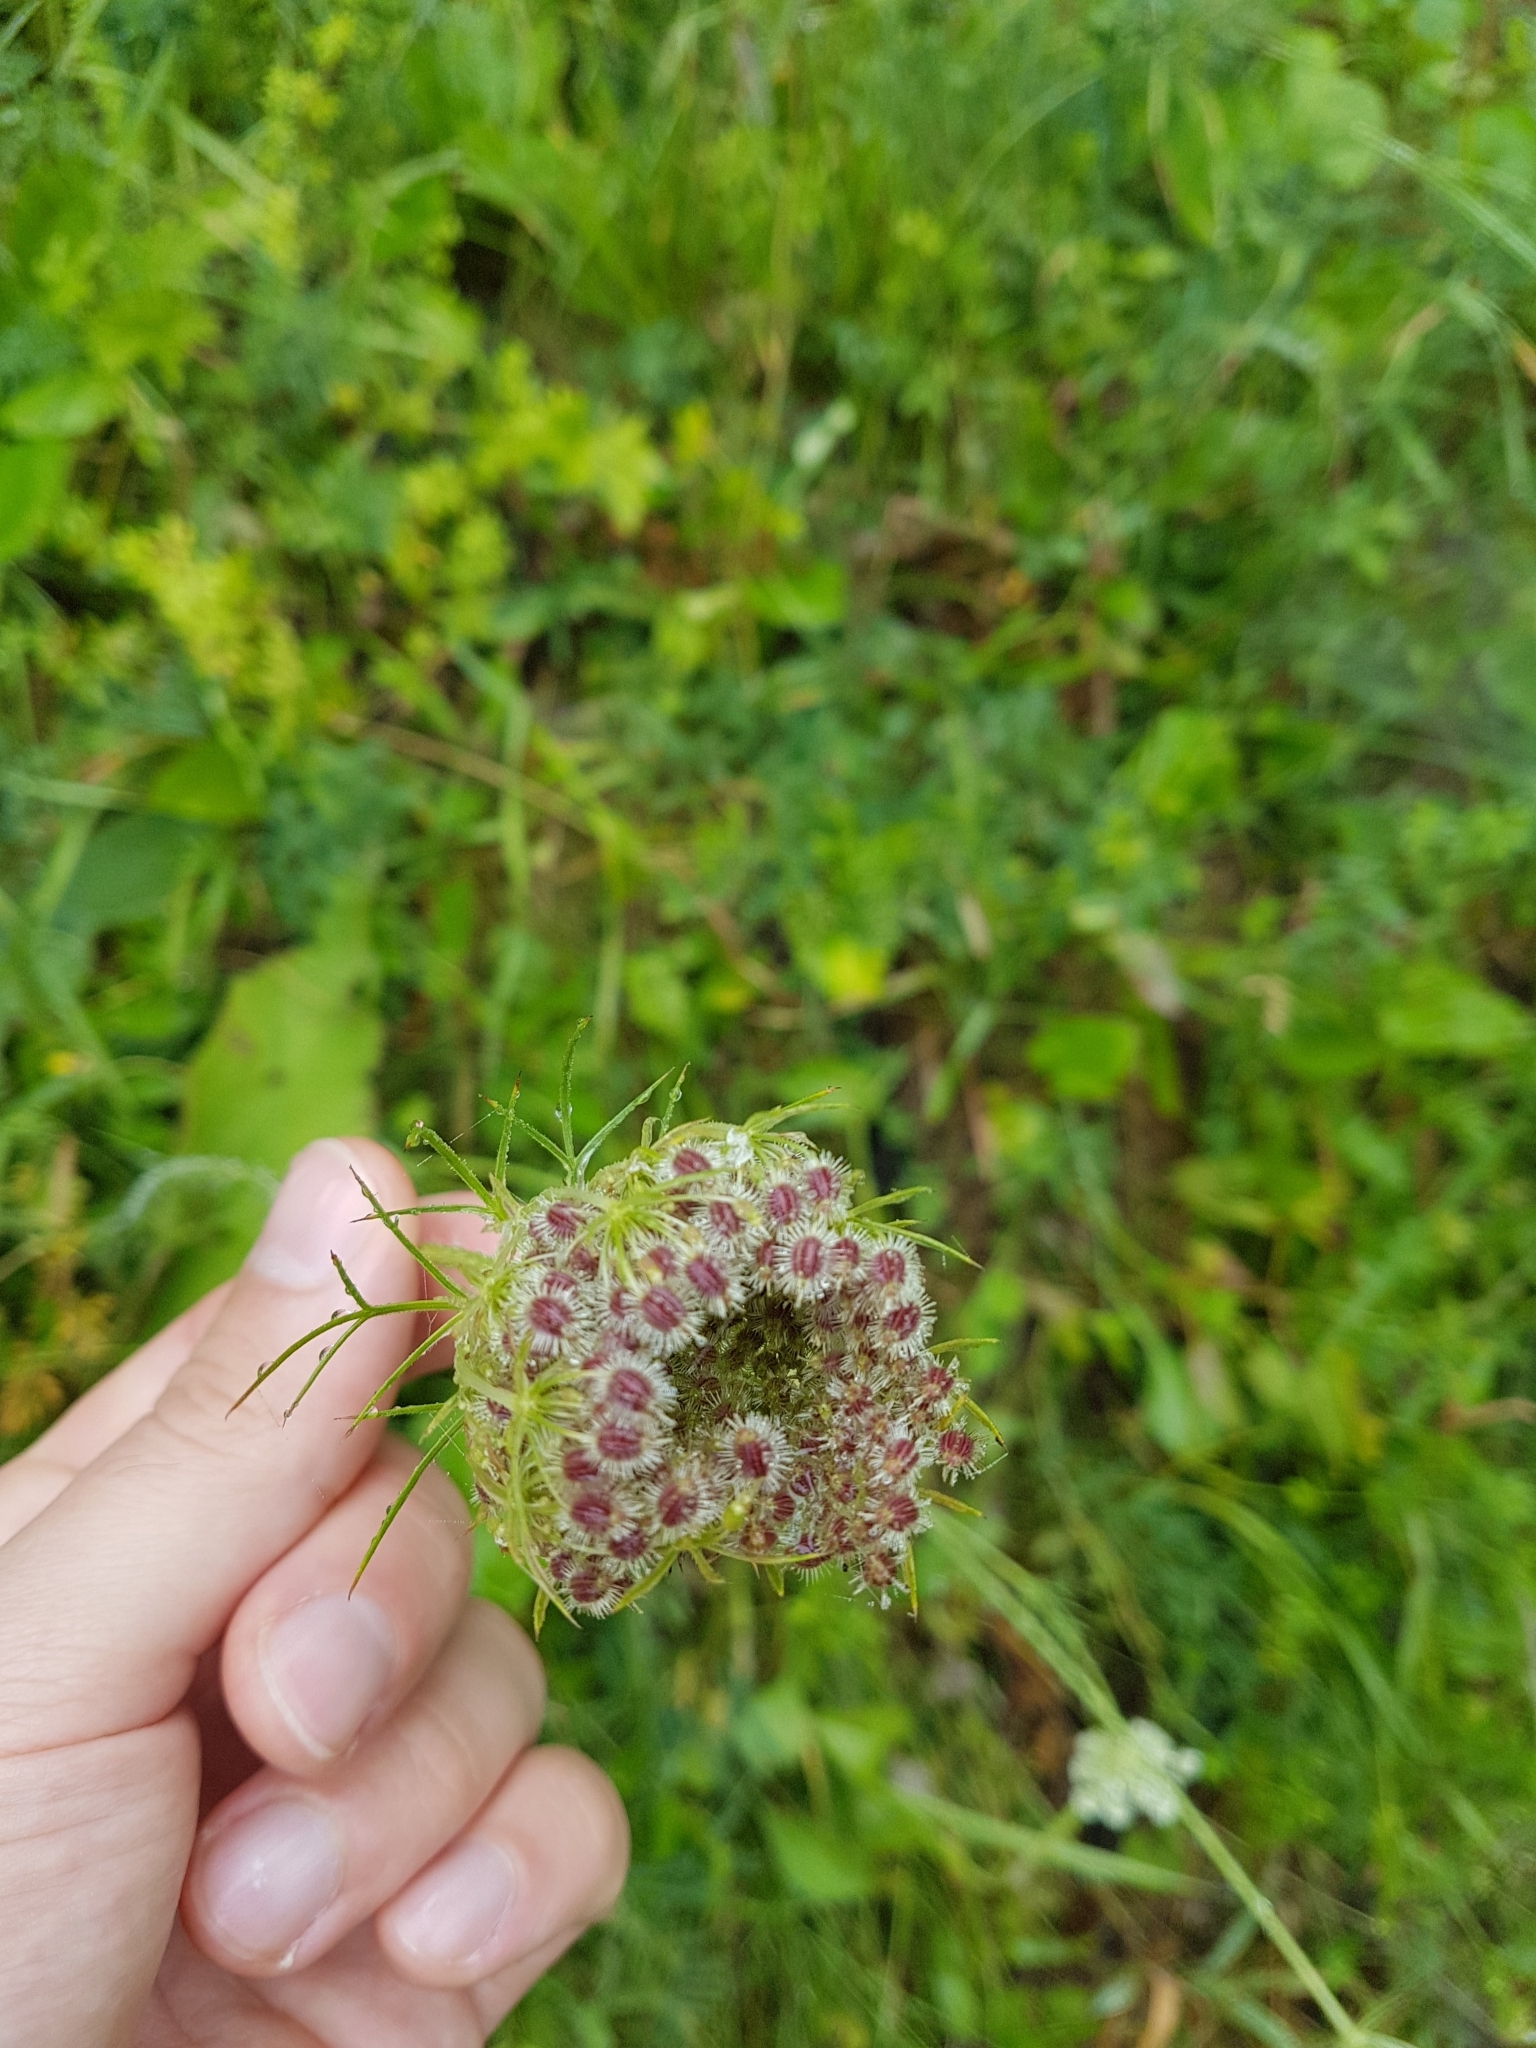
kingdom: Plantae
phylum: Tracheophyta
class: Magnoliopsida
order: Apiales
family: Apiaceae
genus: Daucus
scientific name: Daucus carota
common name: Wild carrot
